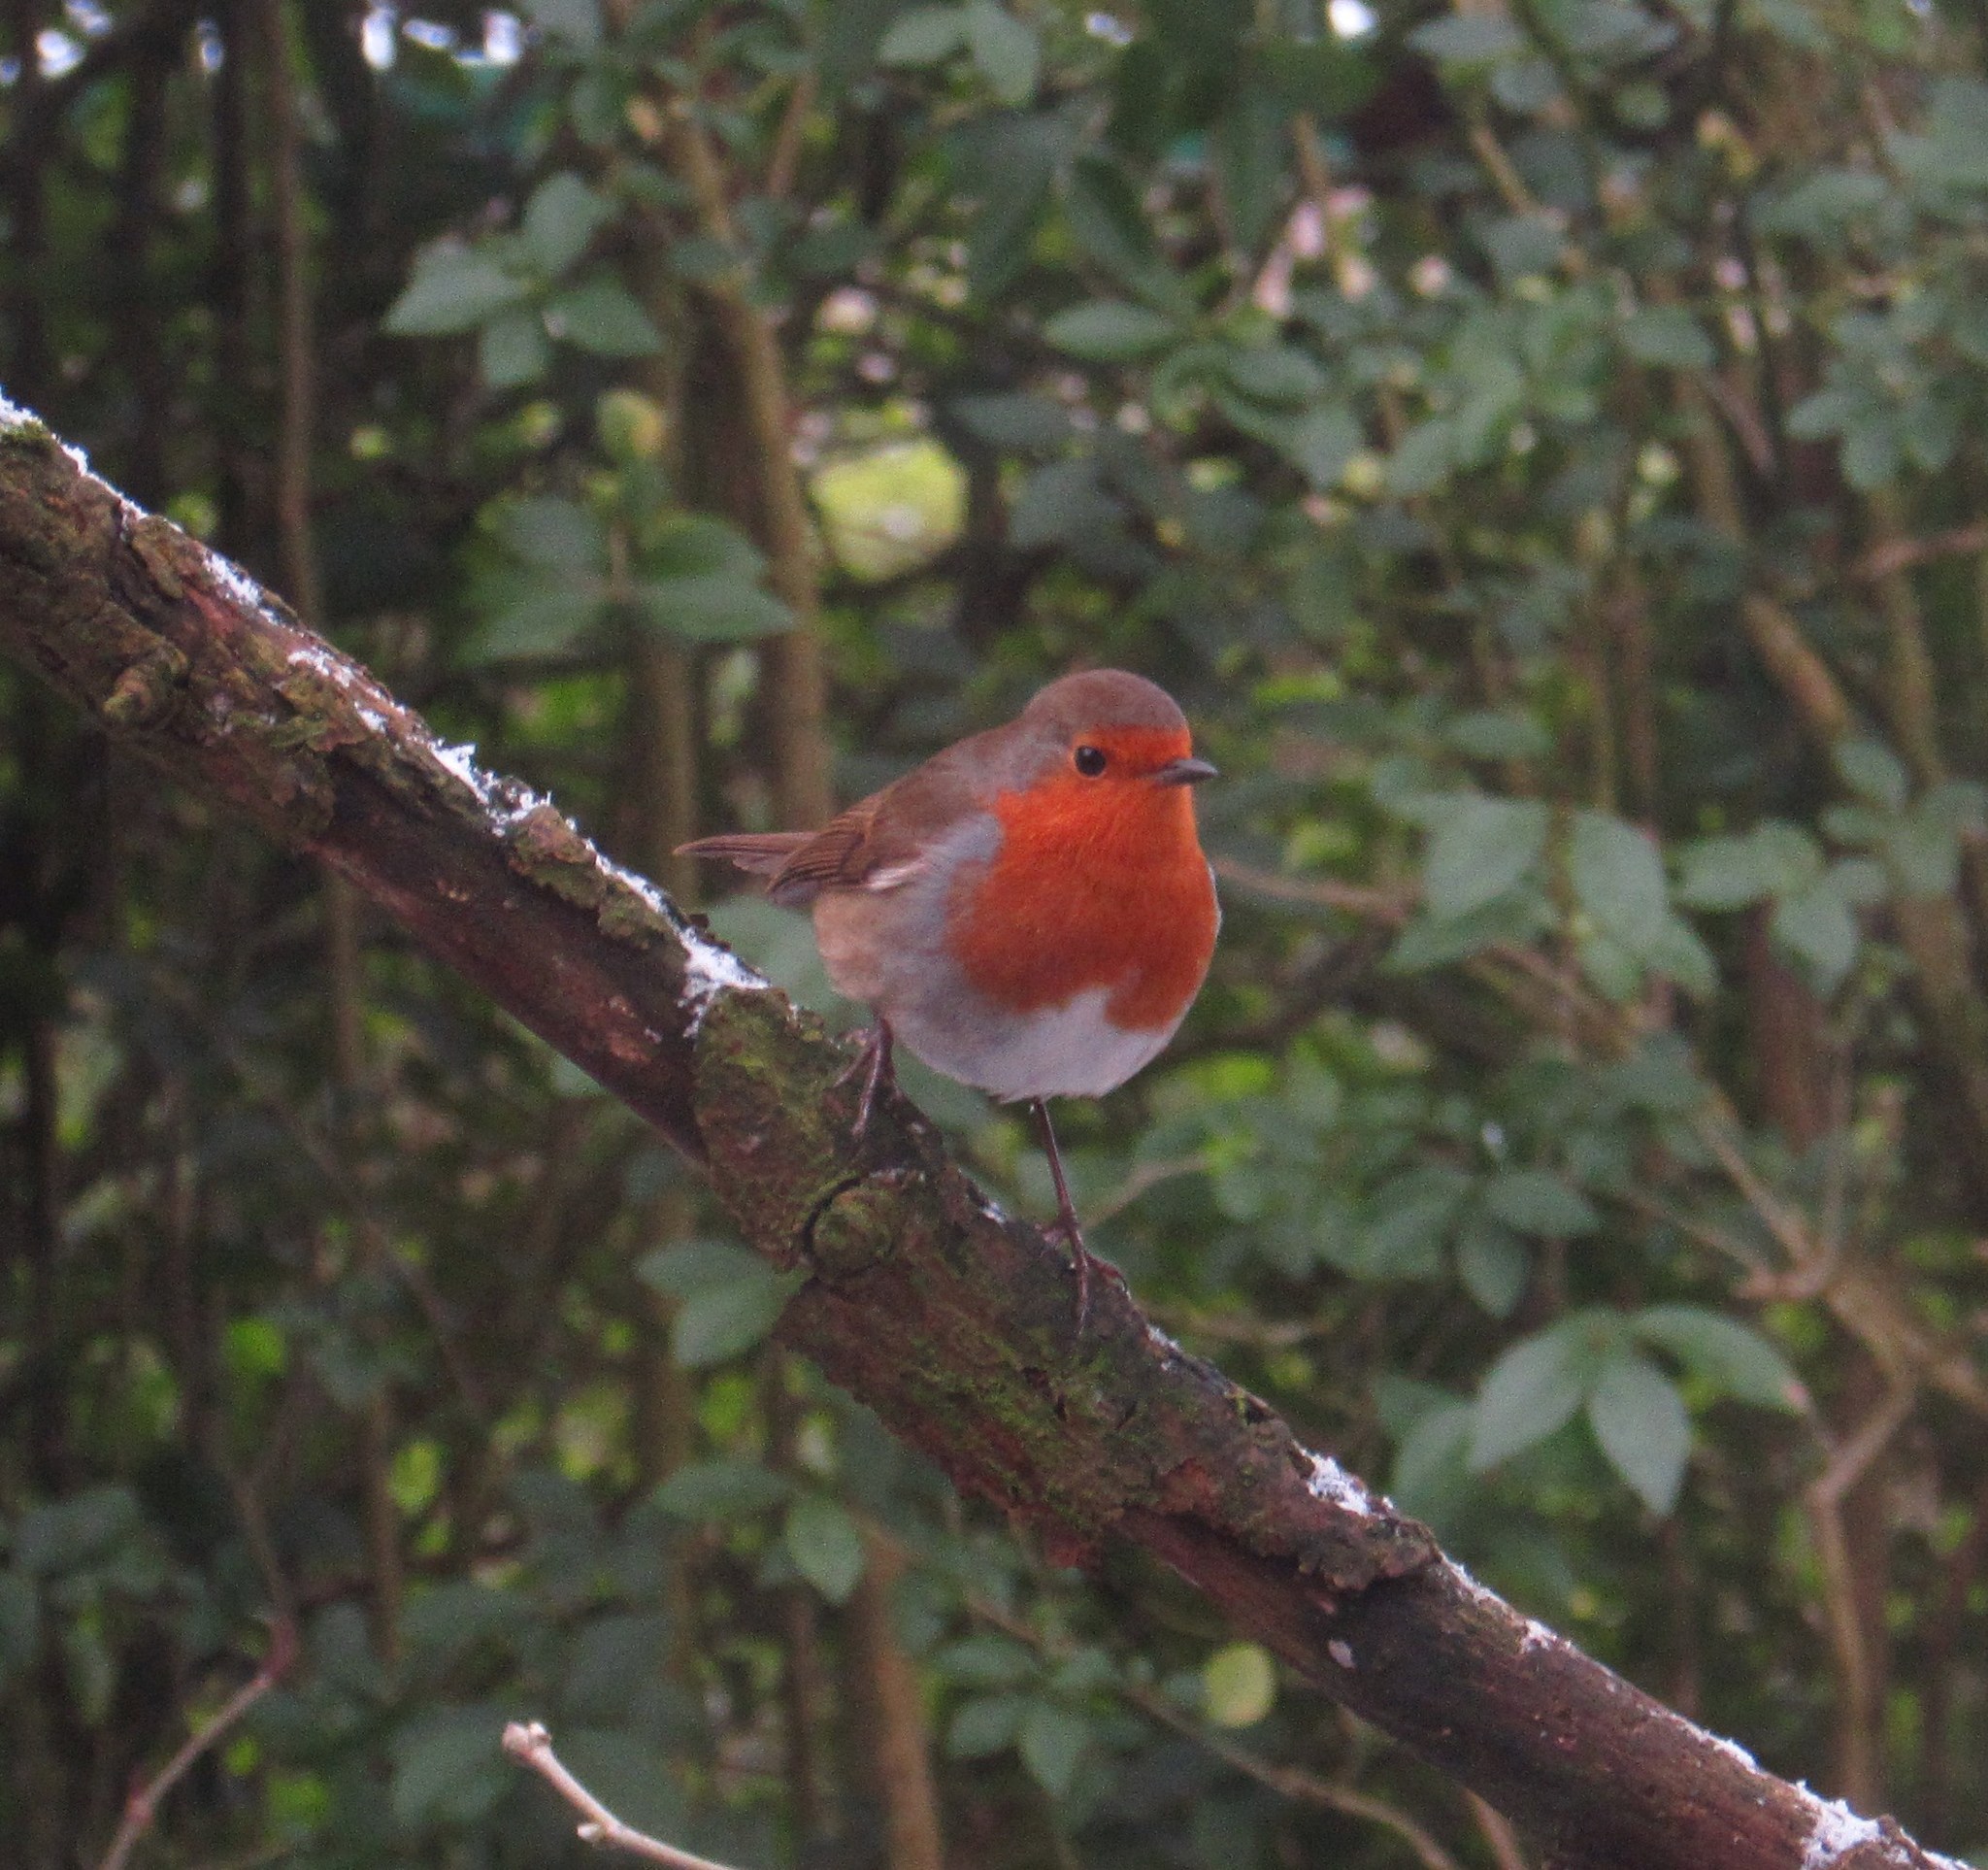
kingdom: Animalia
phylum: Chordata
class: Aves
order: Passeriformes
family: Muscicapidae
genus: Erithacus
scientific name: Erithacus rubecula
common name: European robin
